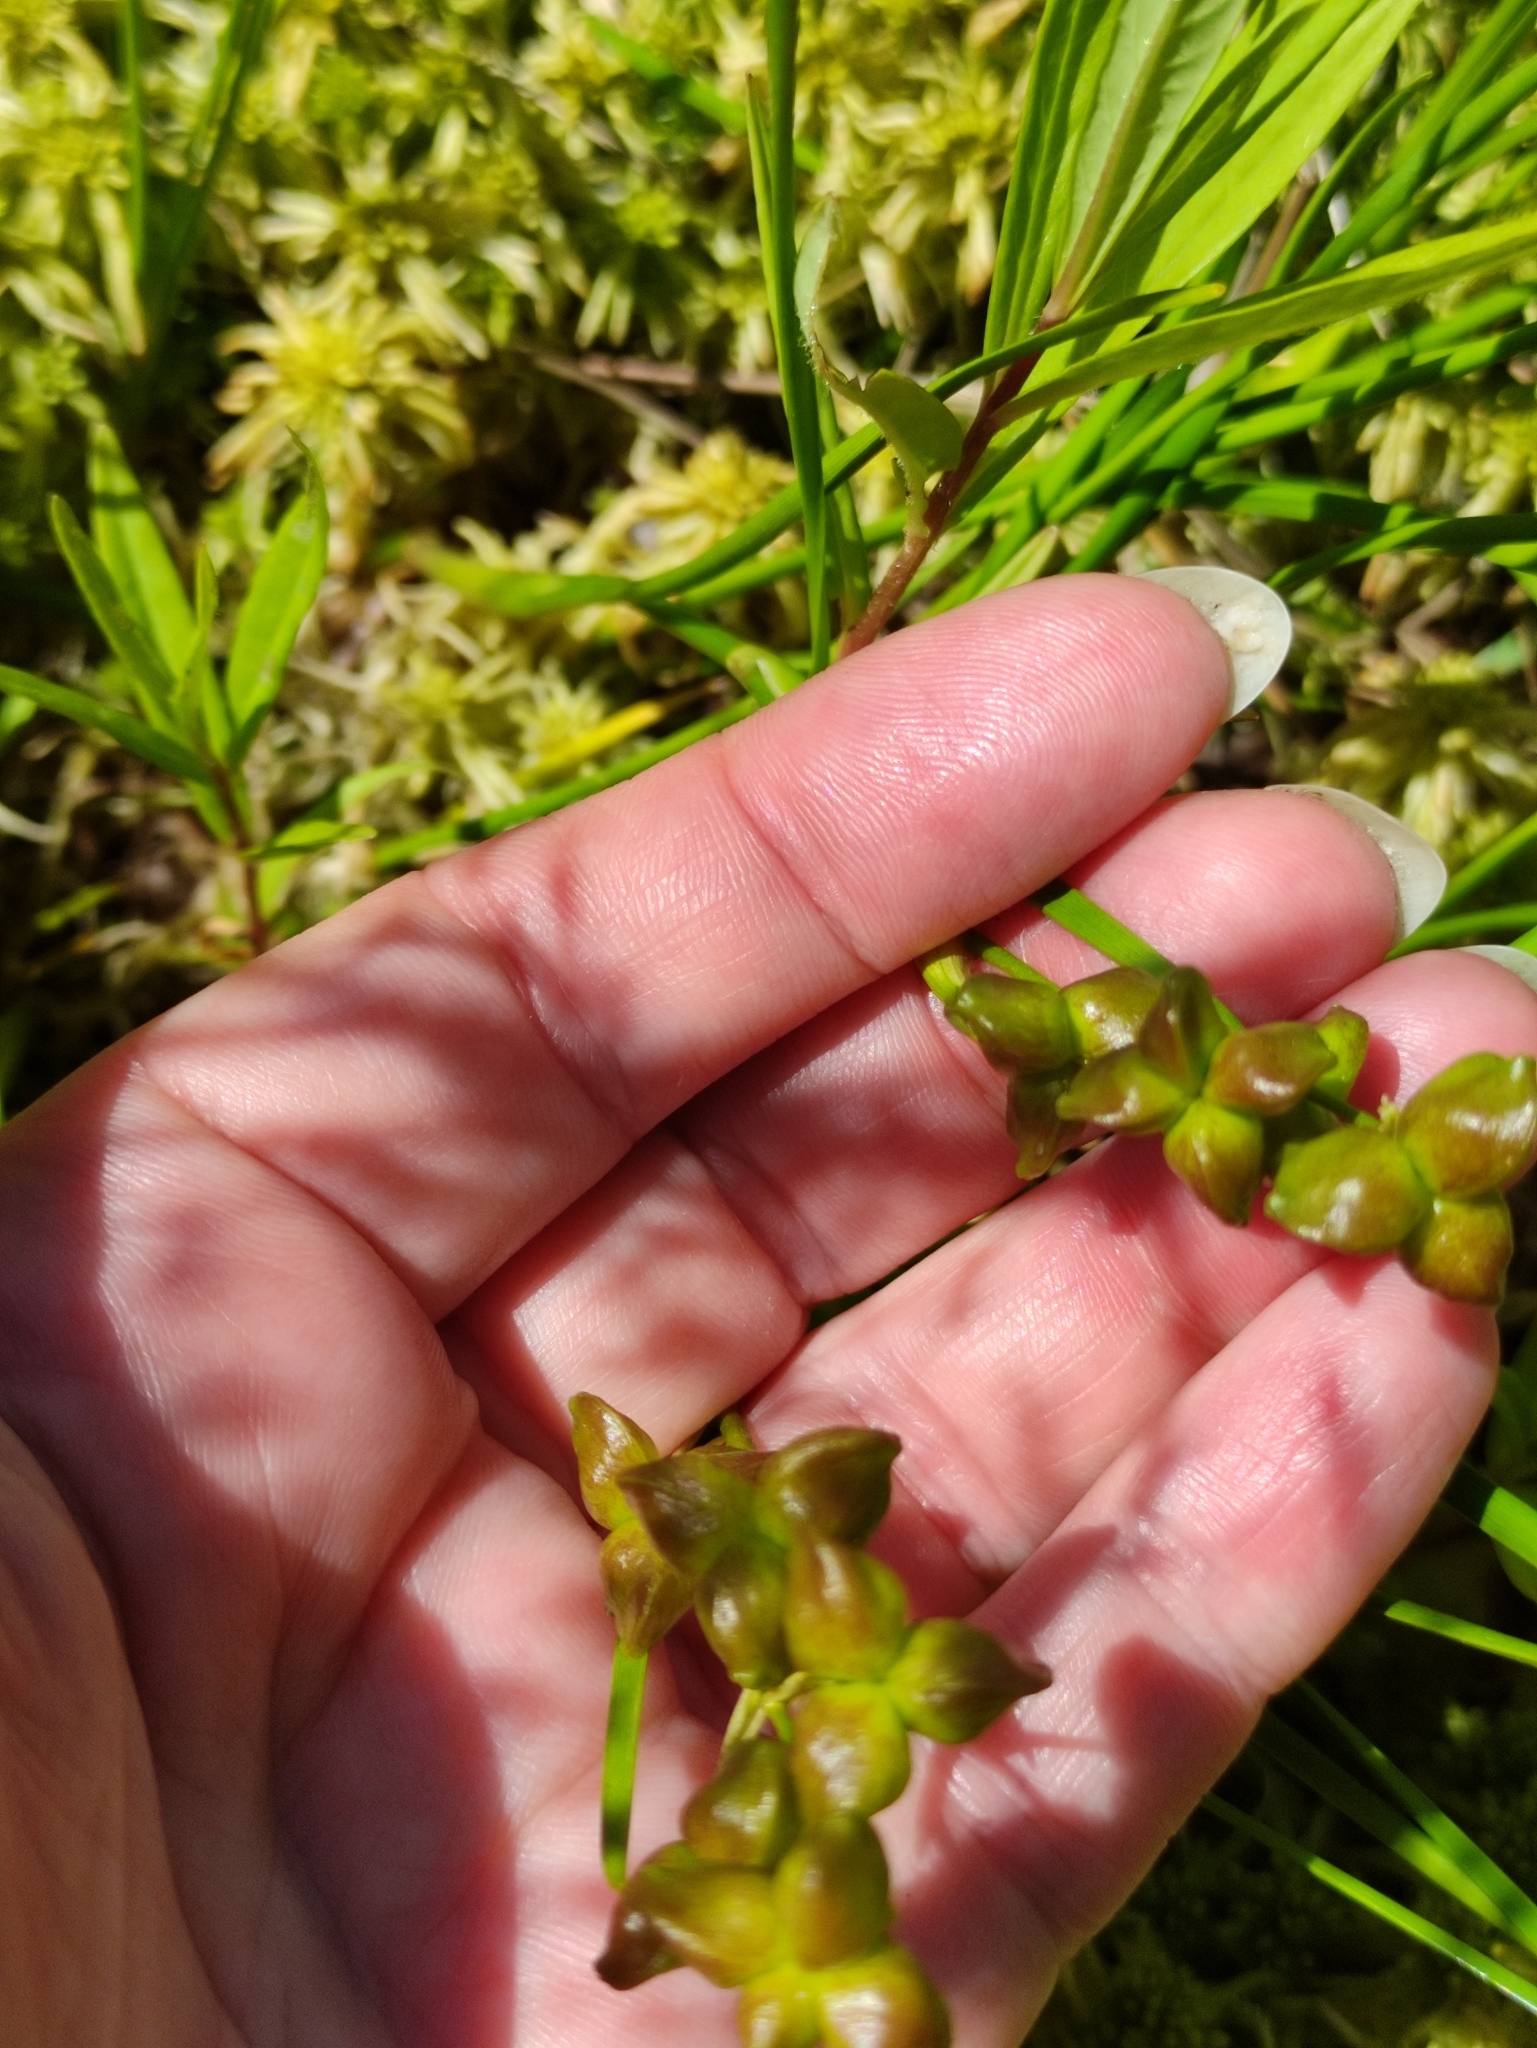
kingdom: Plantae
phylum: Tracheophyta
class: Liliopsida
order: Alismatales
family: Scheuchzeriaceae
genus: Scheuchzeria
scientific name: Scheuchzeria palustris
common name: Rannoch-rush
